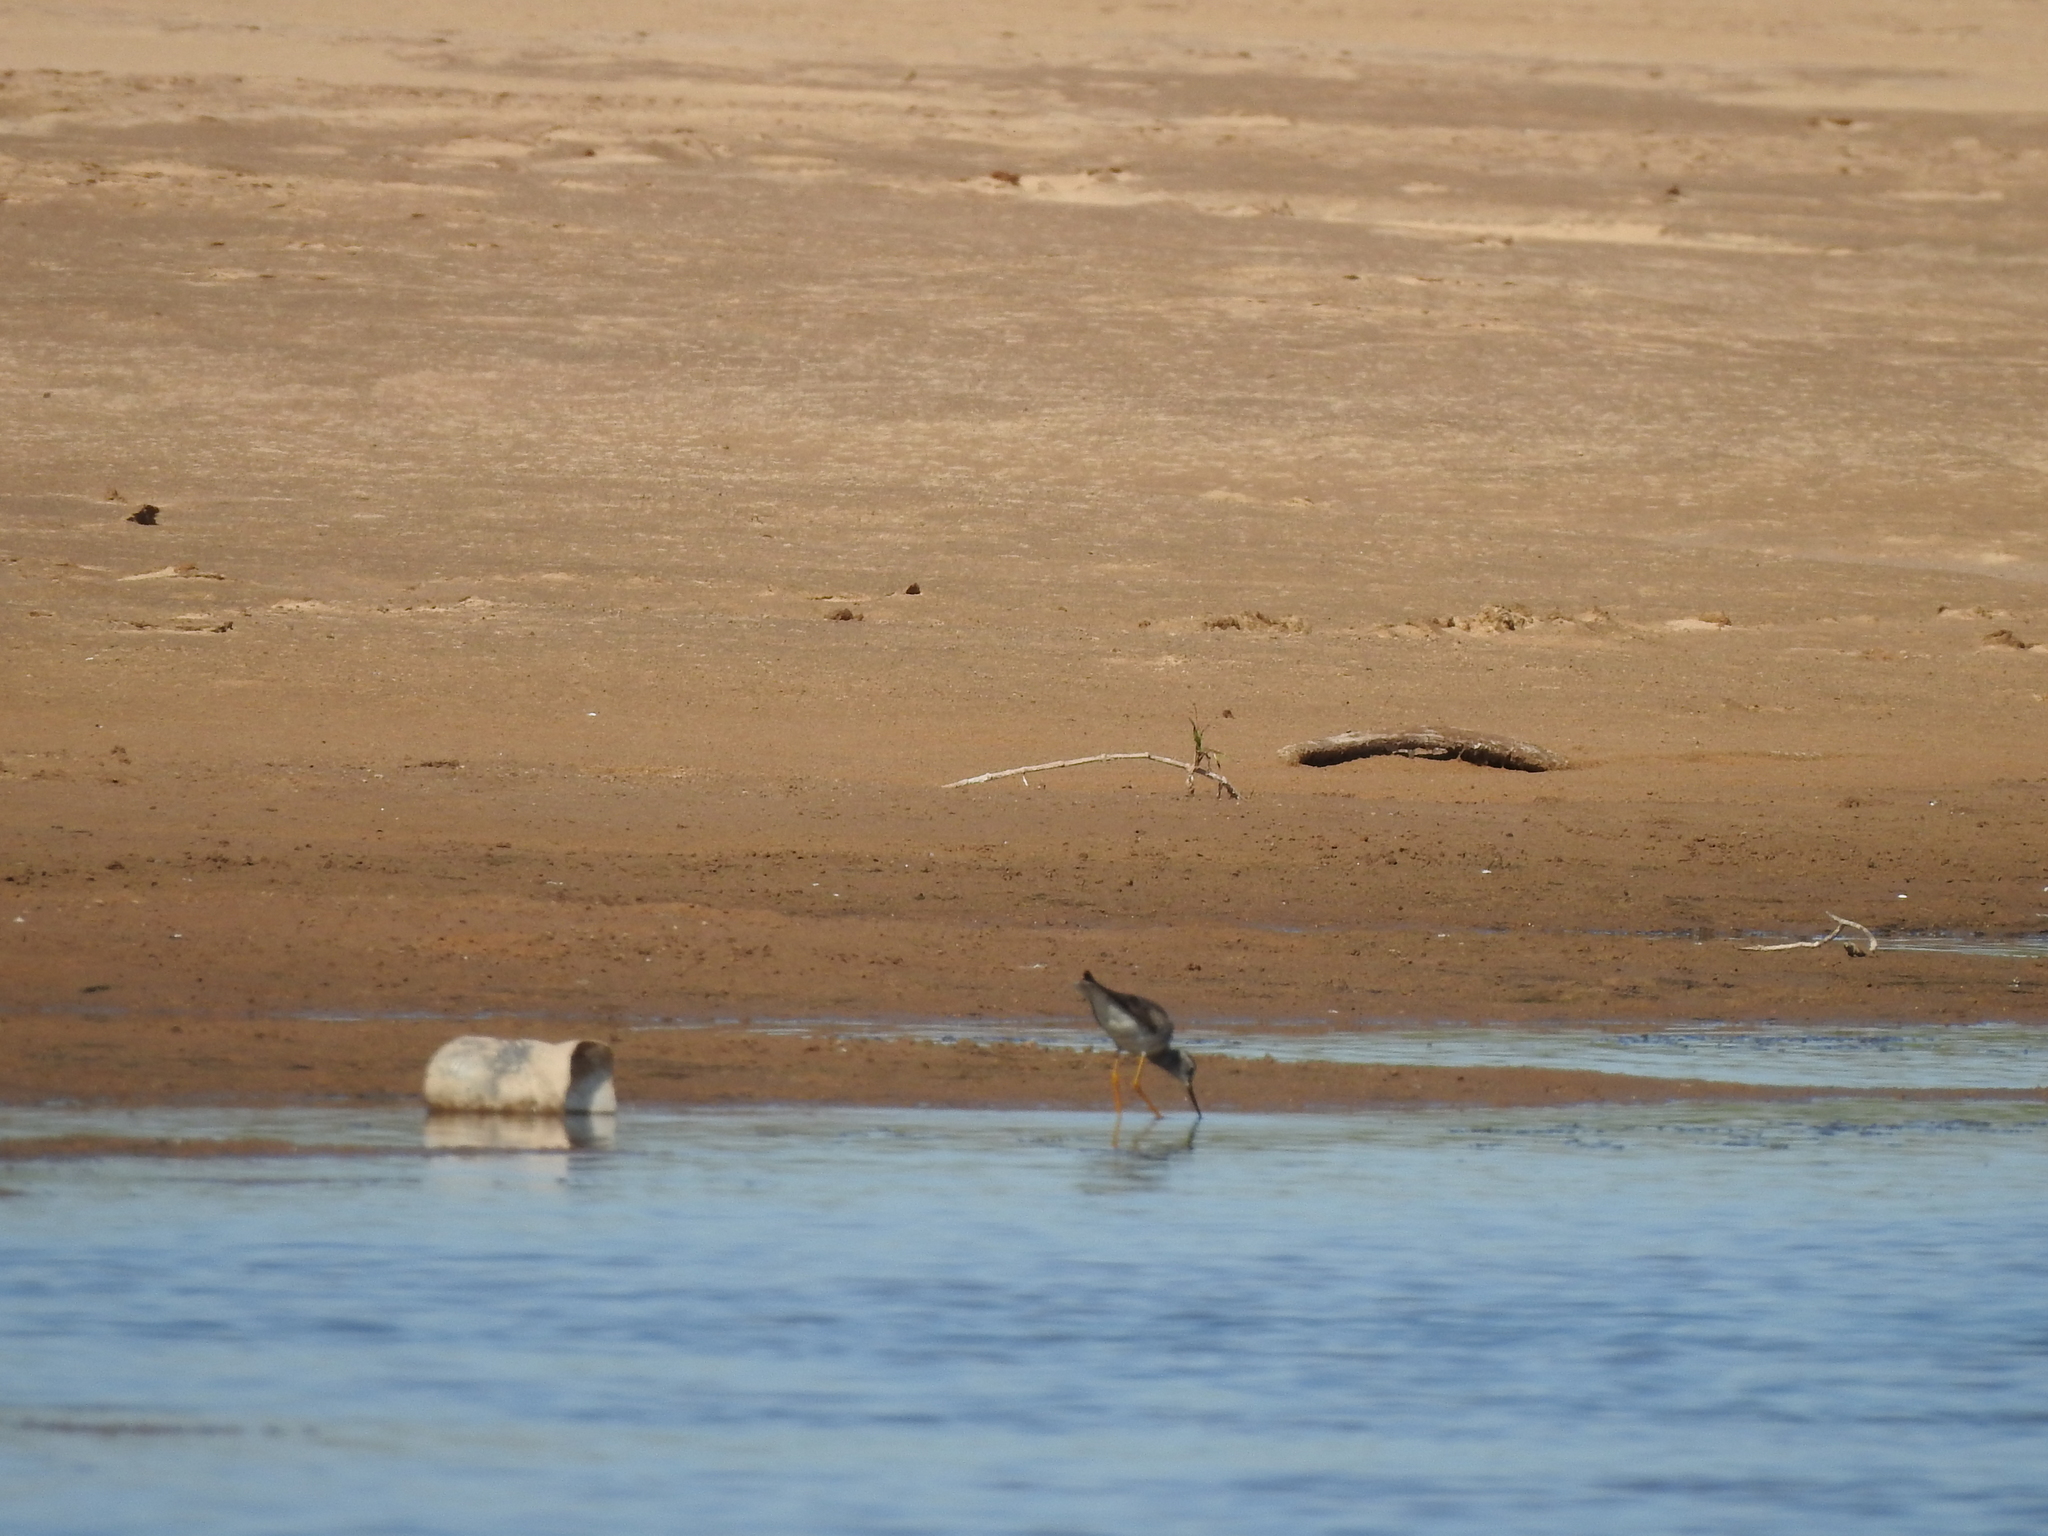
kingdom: Animalia
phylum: Chordata
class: Aves
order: Charadriiformes
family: Scolopacidae
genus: Tringa
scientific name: Tringa flavipes
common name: Lesser yellowlegs
